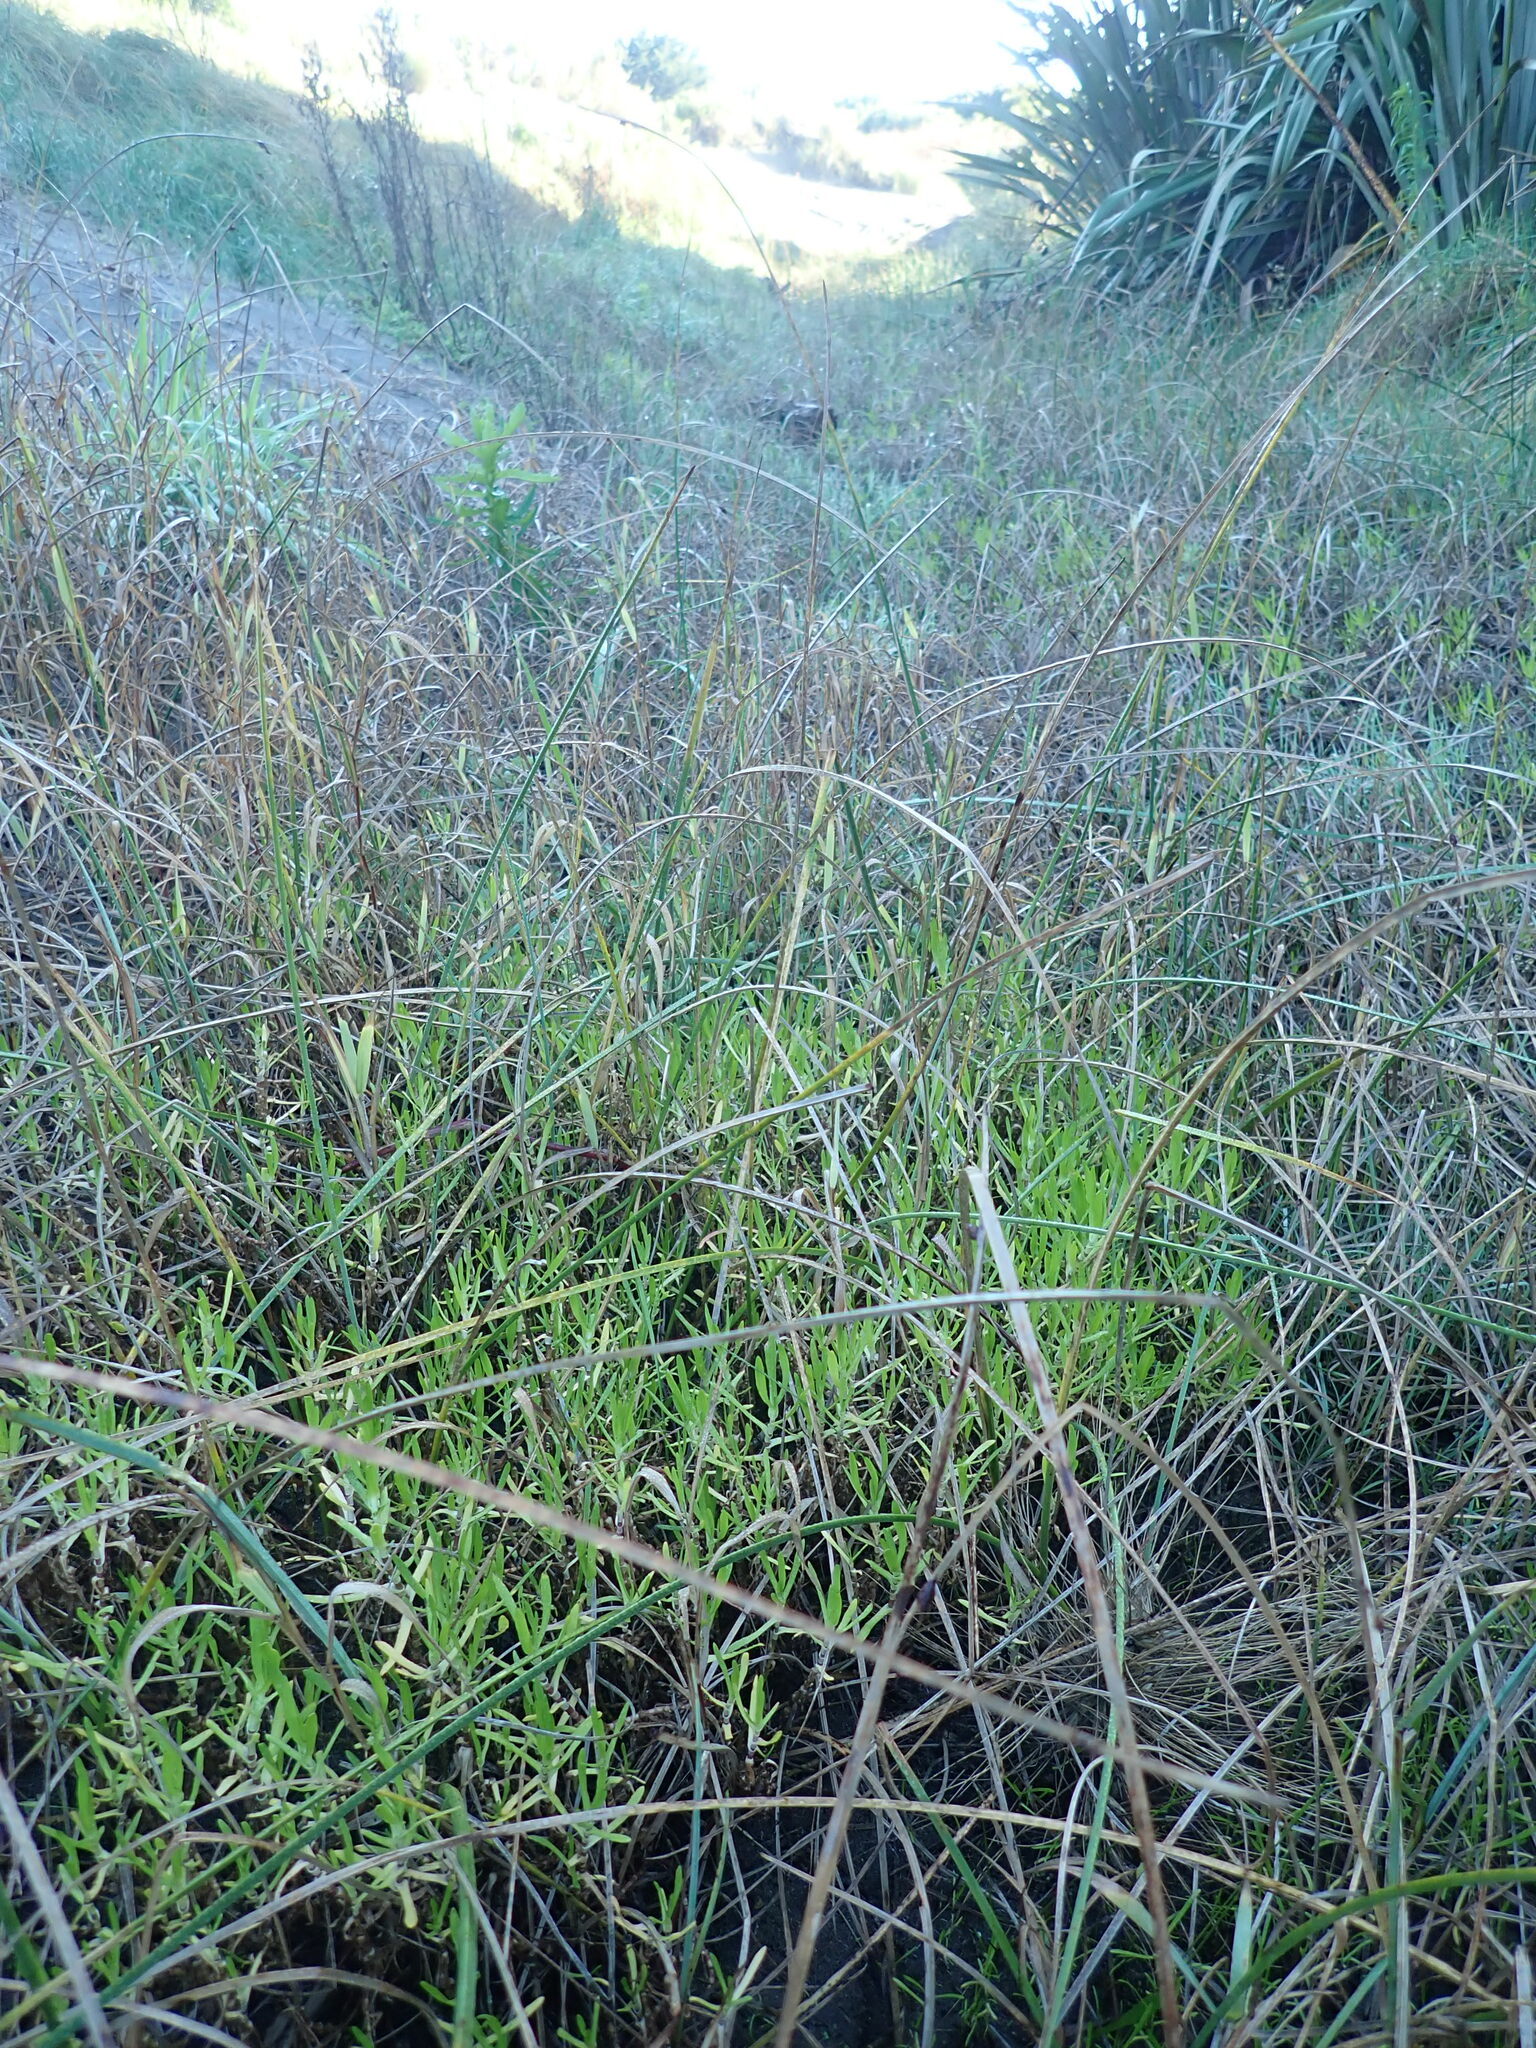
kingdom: Plantae
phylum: Tracheophyta
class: Magnoliopsida
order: Asterales
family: Asteraceae
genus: Cotula
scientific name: Cotula coronopifolia
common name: Buttonweed
